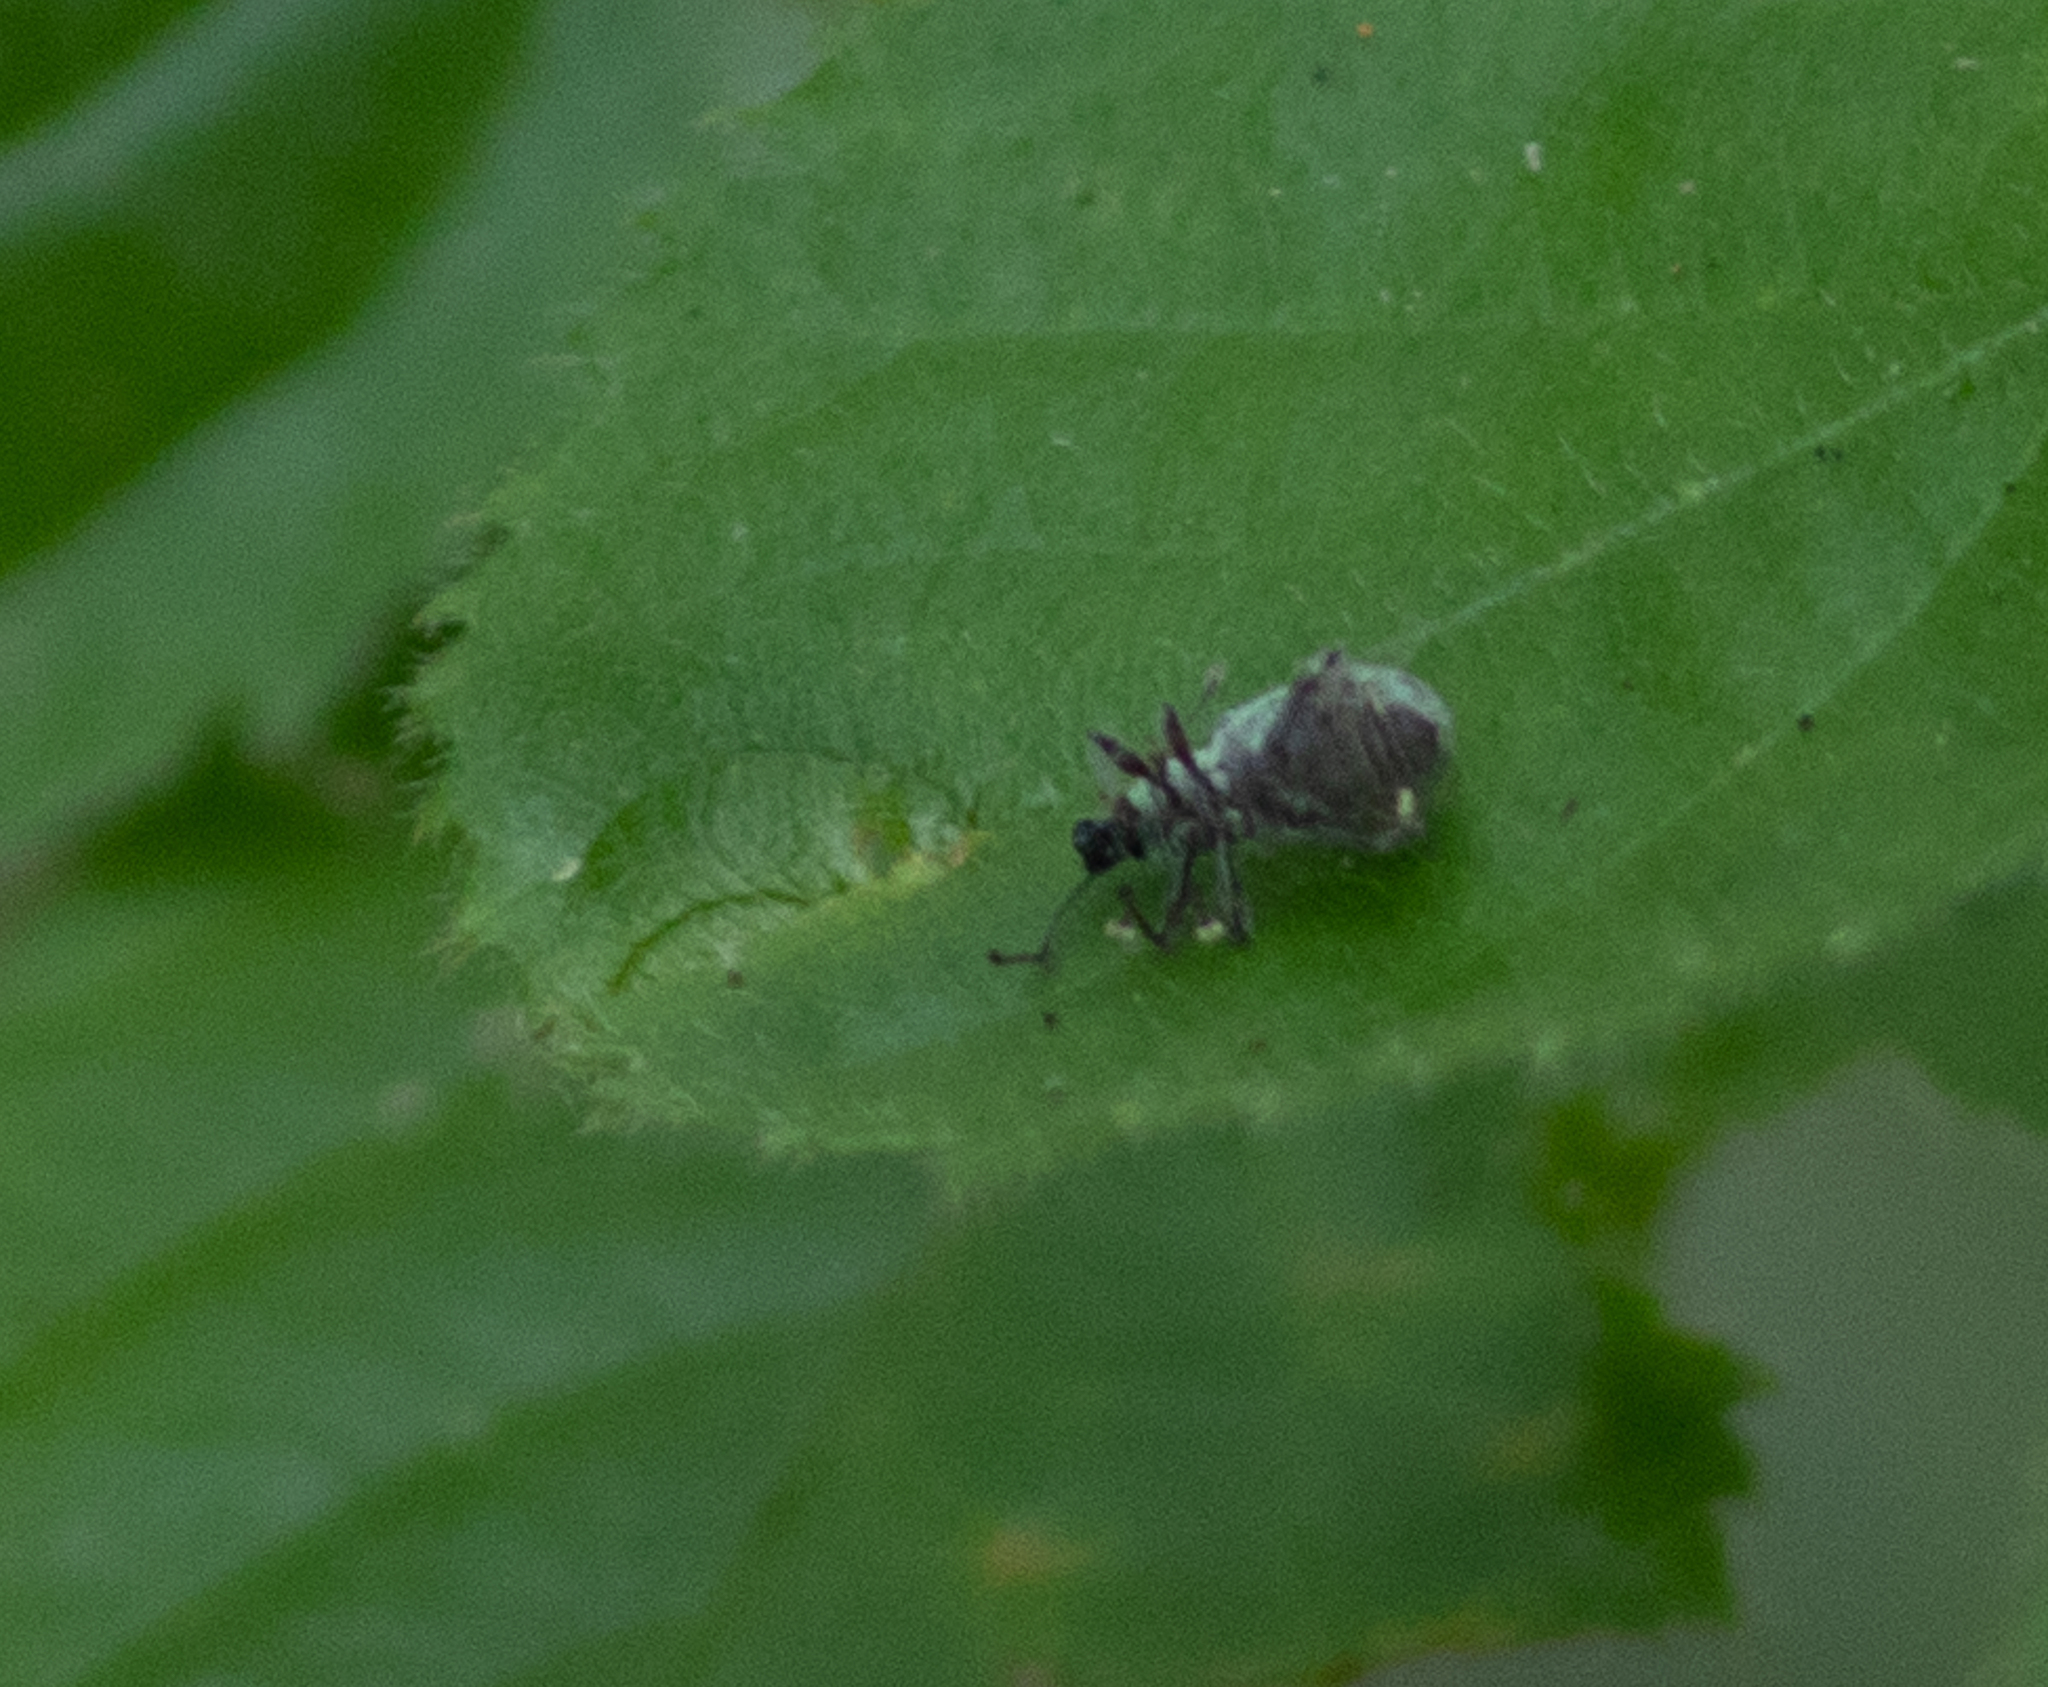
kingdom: Animalia
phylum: Arthropoda
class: Insecta
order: Coleoptera
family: Curculionidae
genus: Cyrtepistomus
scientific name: Cyrtepistomus castaneus
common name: Weevil
